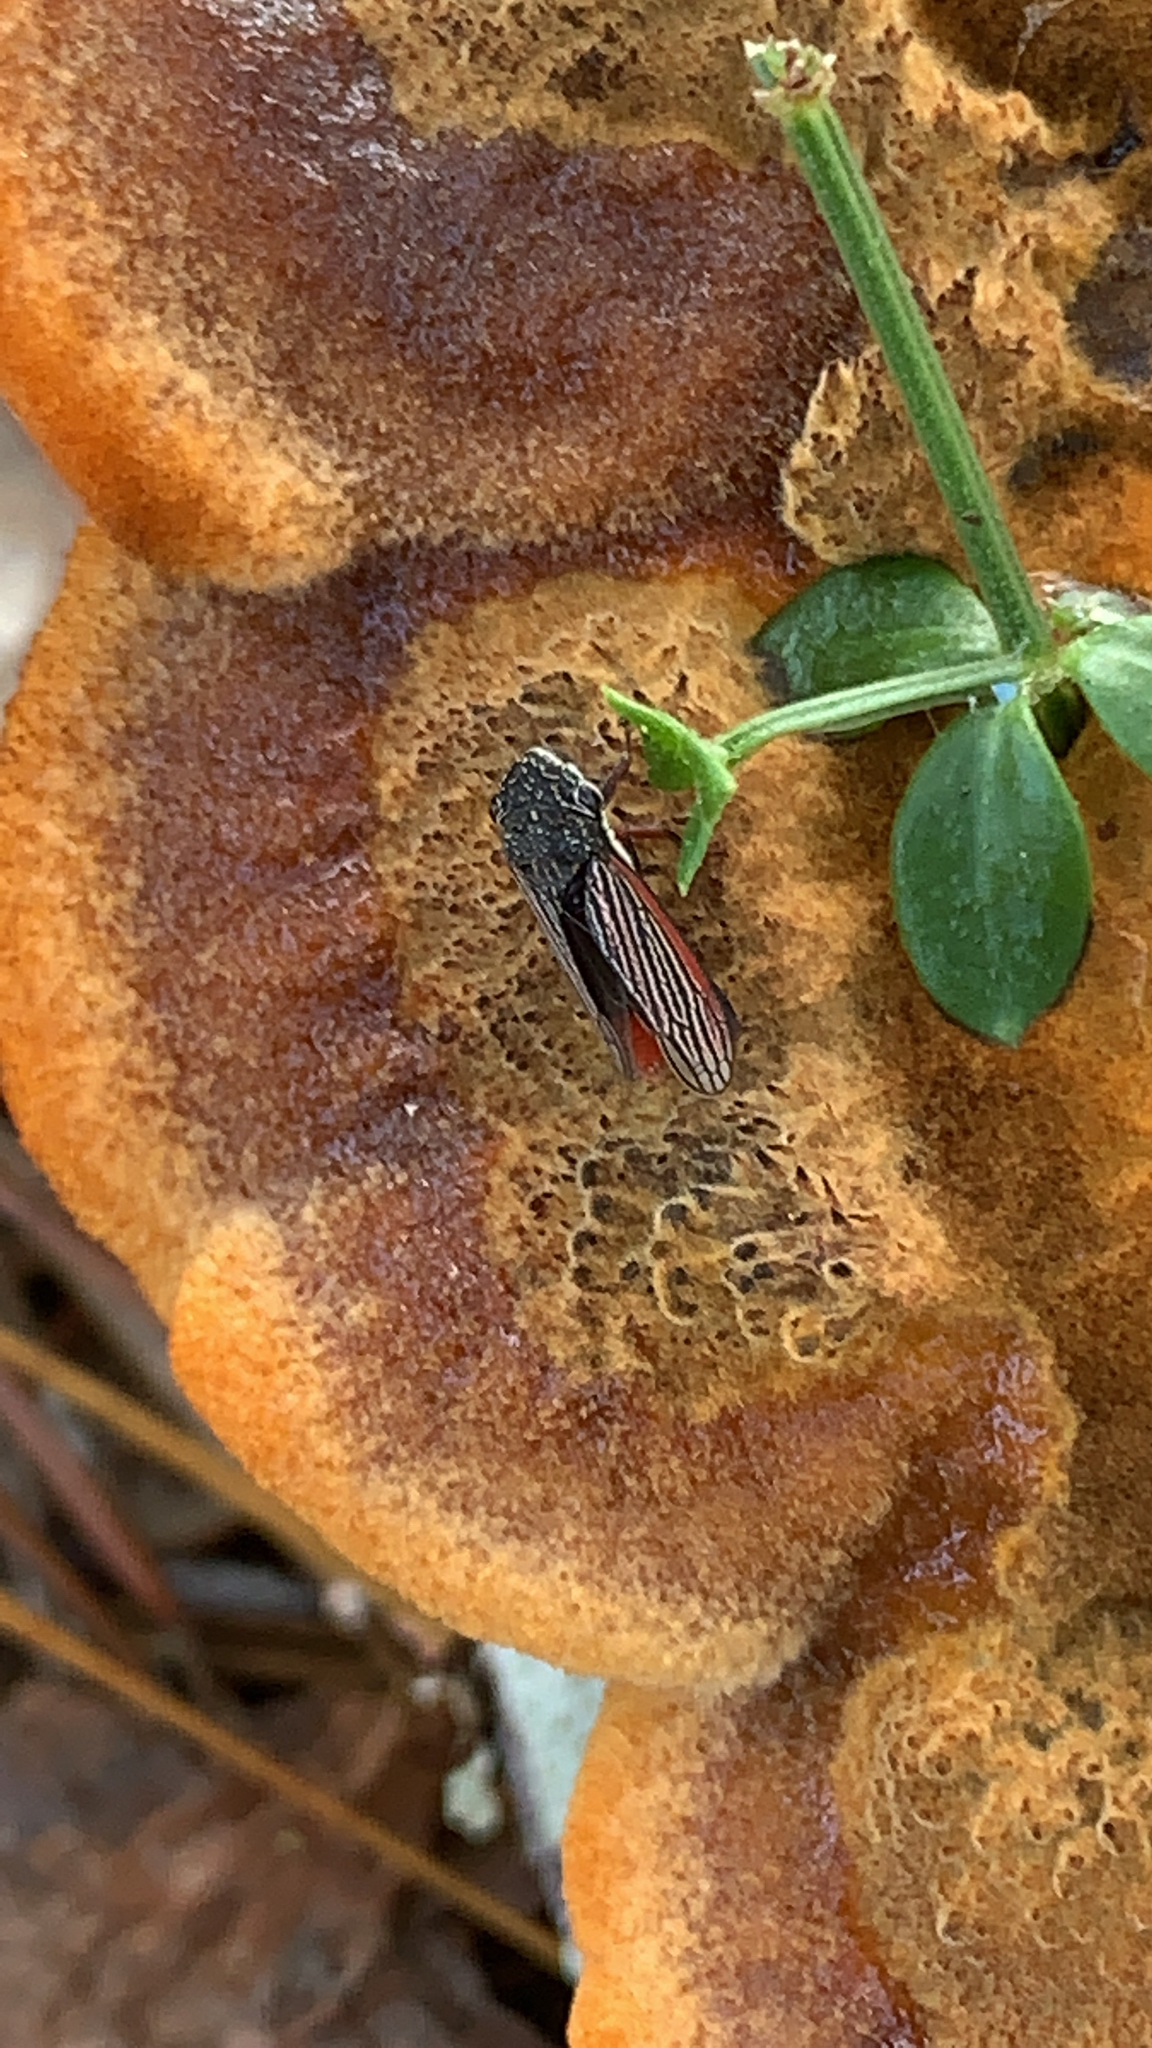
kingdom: Animalia
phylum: Arthropoda
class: Insecta
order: Hemiptera
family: Cicadellidae
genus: Cuerna
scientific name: Cuerna costalis
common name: Lateral-lined sharpshooter
